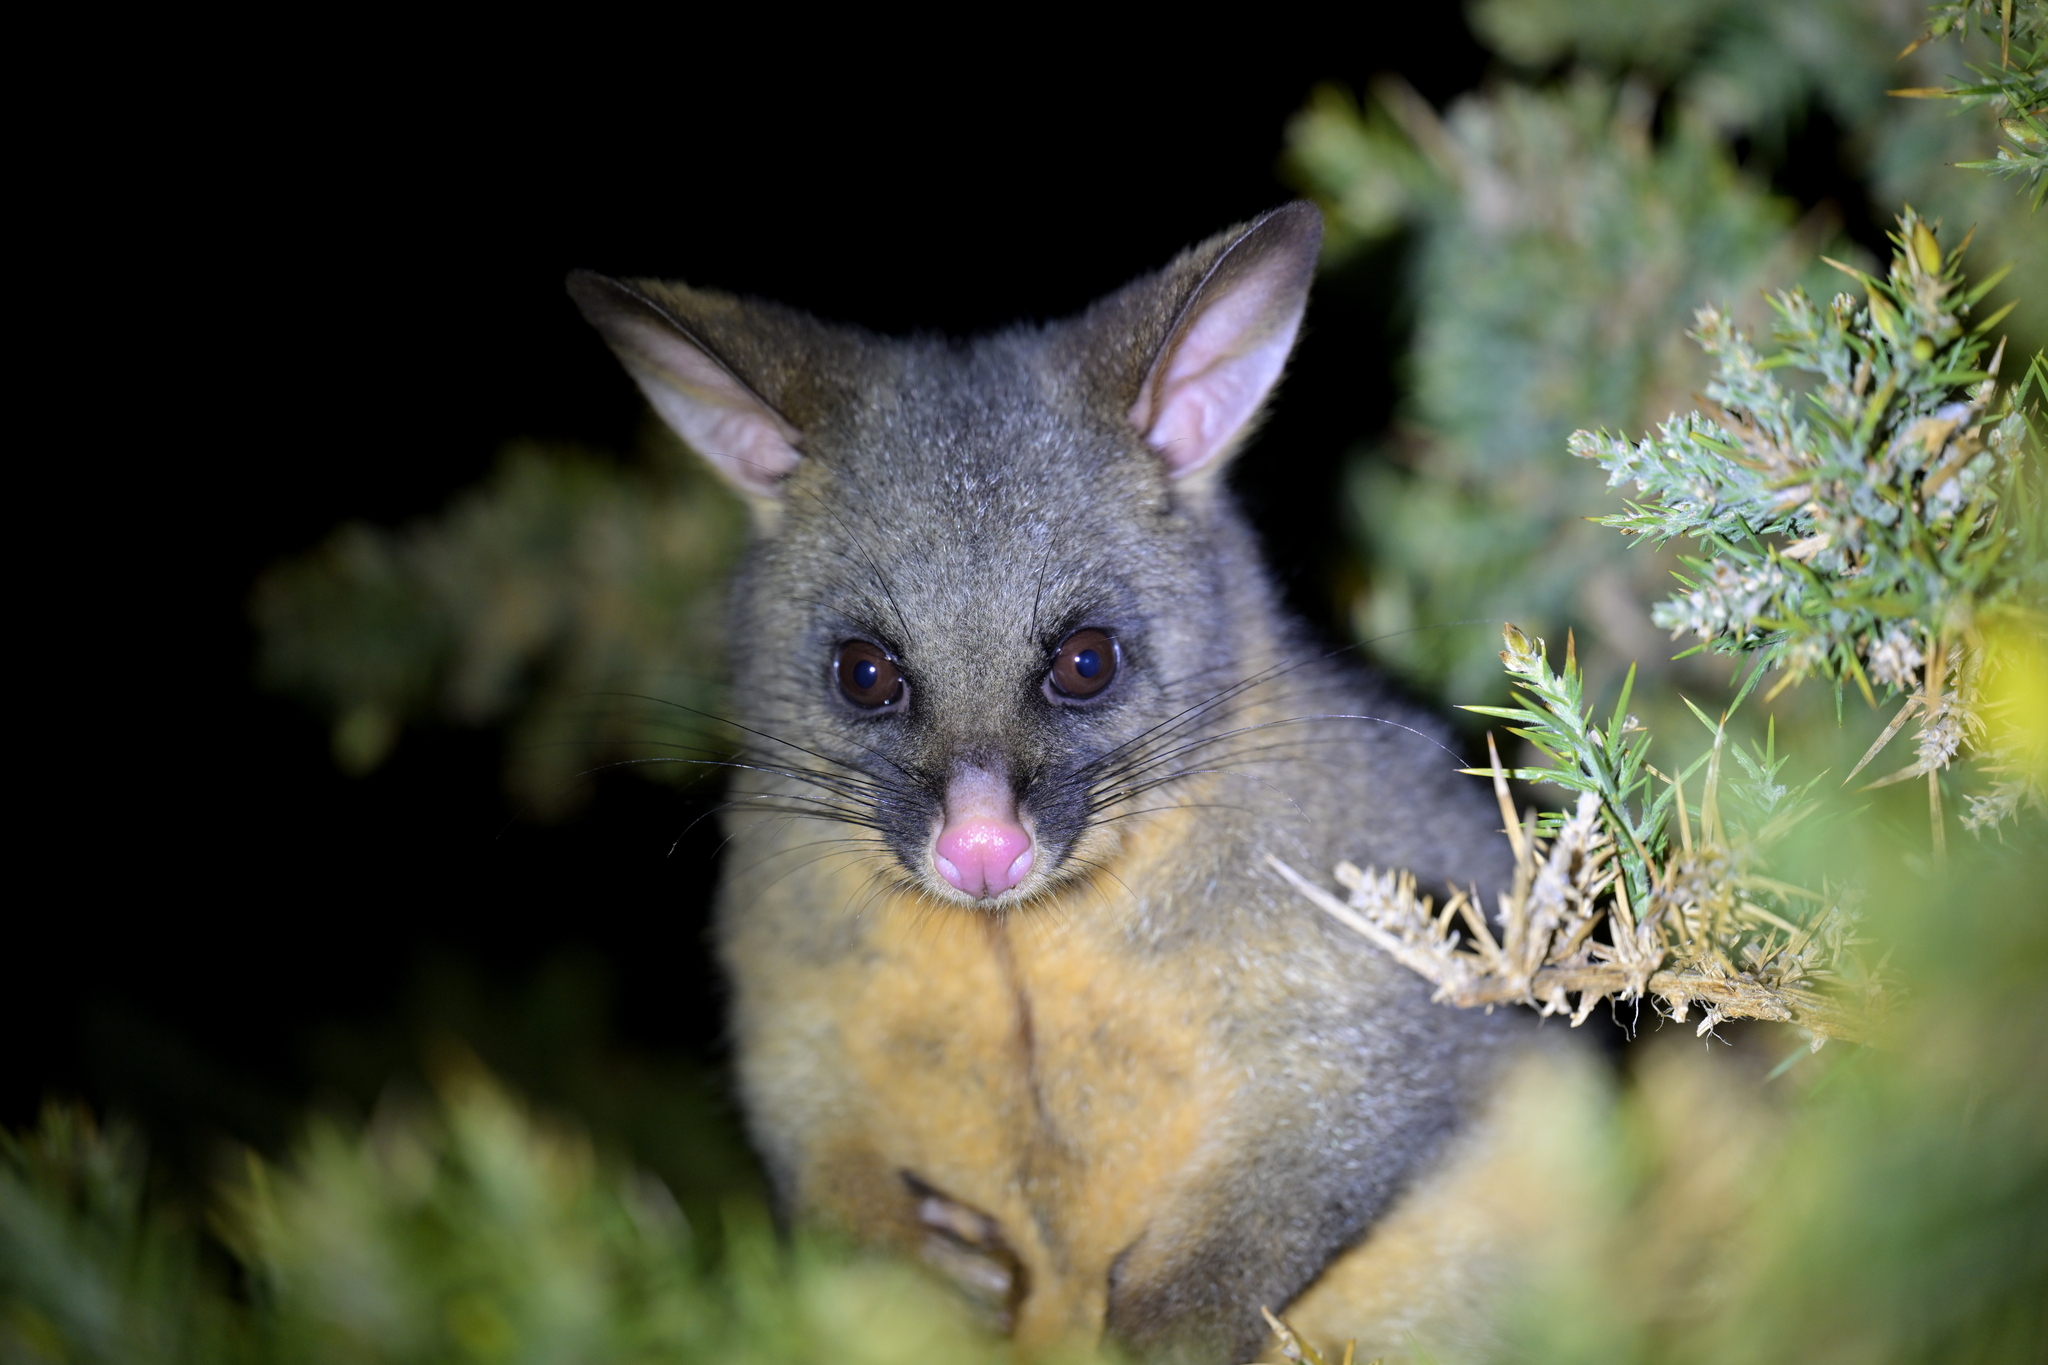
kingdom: Animalia
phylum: Chordata
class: Mammalia
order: Diprotodontia
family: Phalangeridae
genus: Trichosurus
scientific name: Trichosurus vulpecula
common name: Common brushtail
